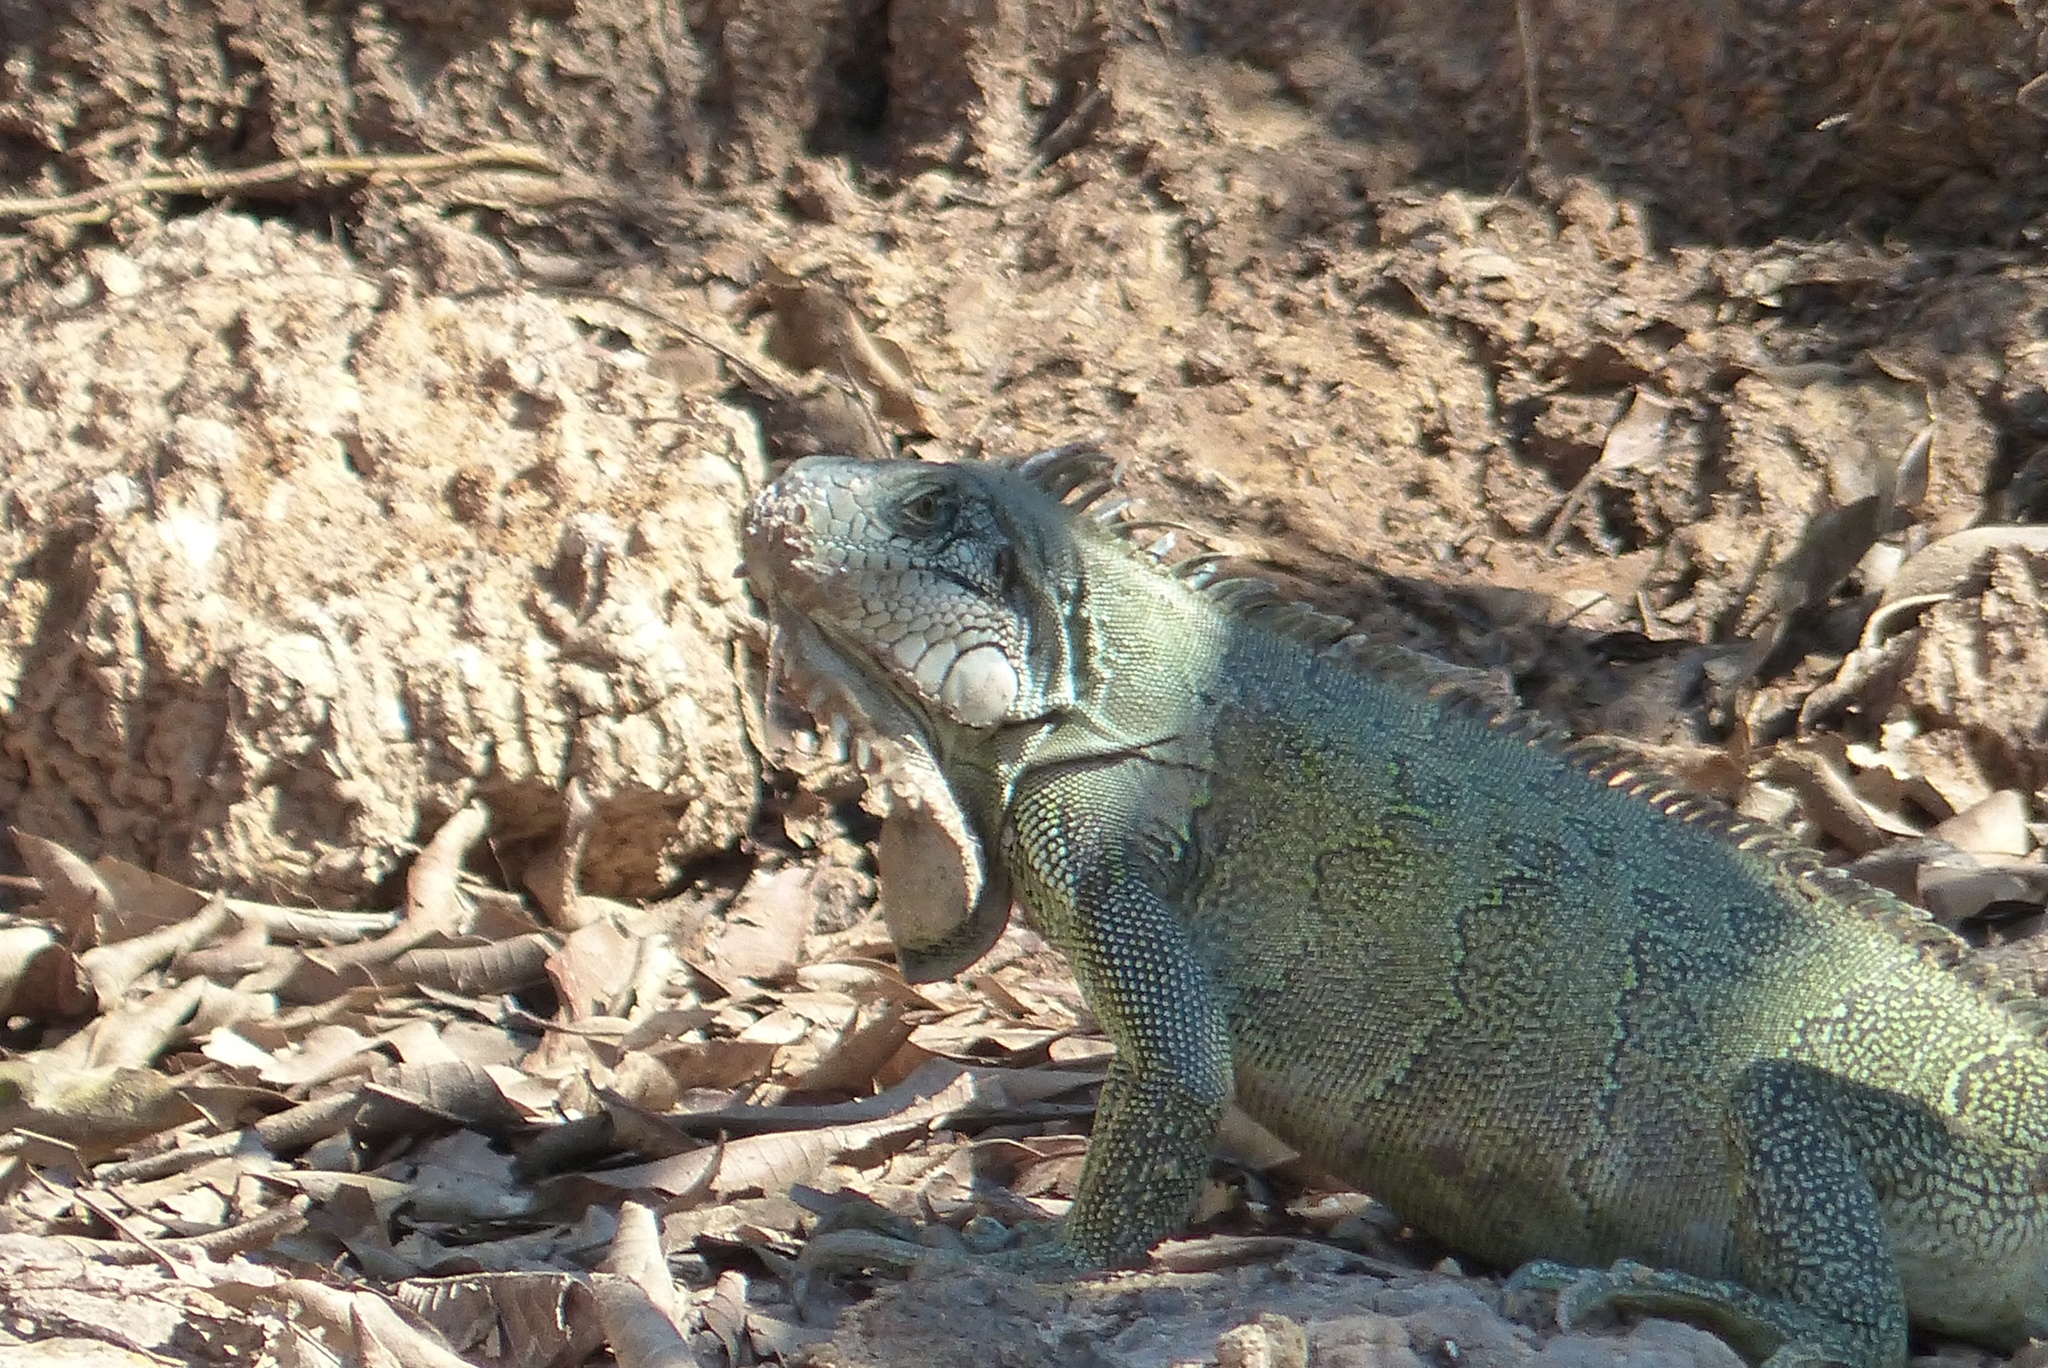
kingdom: Animalia
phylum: Chordata
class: Squamata
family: Iguanidae
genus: Iguana
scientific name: Iguana iguana
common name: Green iguana
